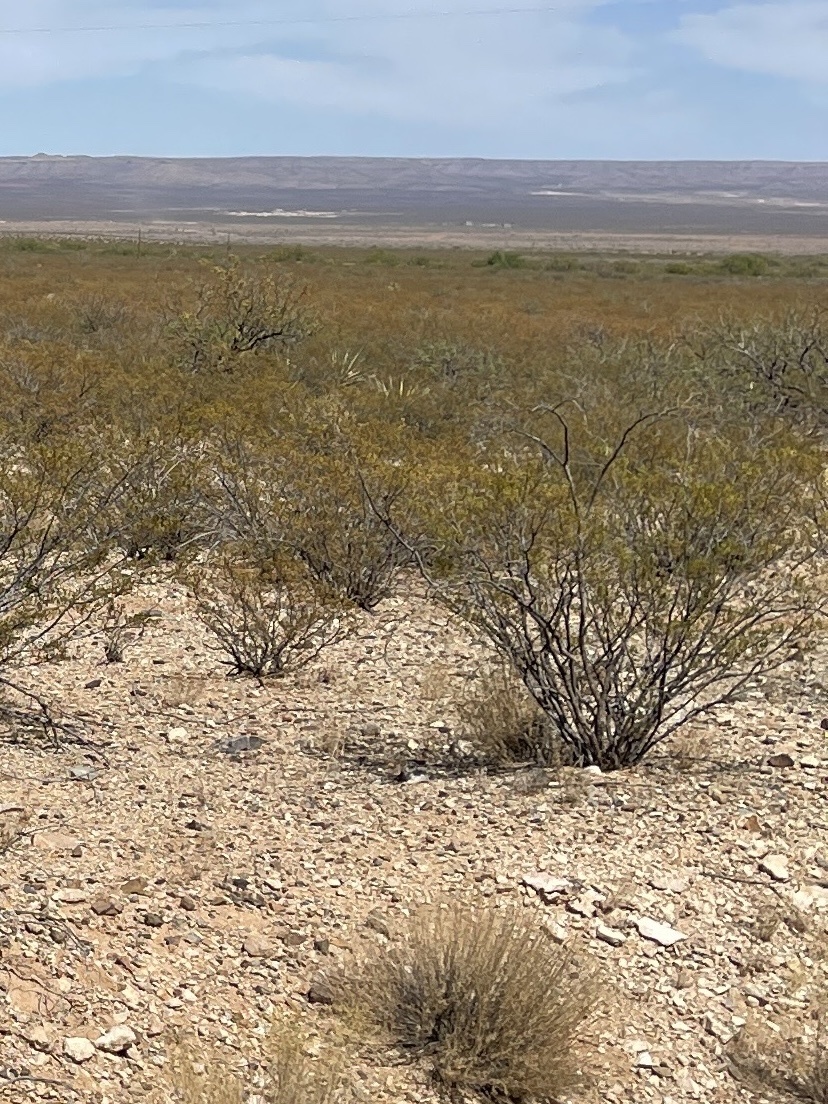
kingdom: Plantae
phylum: Tracheophyta
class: Magnoliopsida
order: Zygophyllales
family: Zygophyllaceae
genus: Larrea
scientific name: Larrea tridentata
